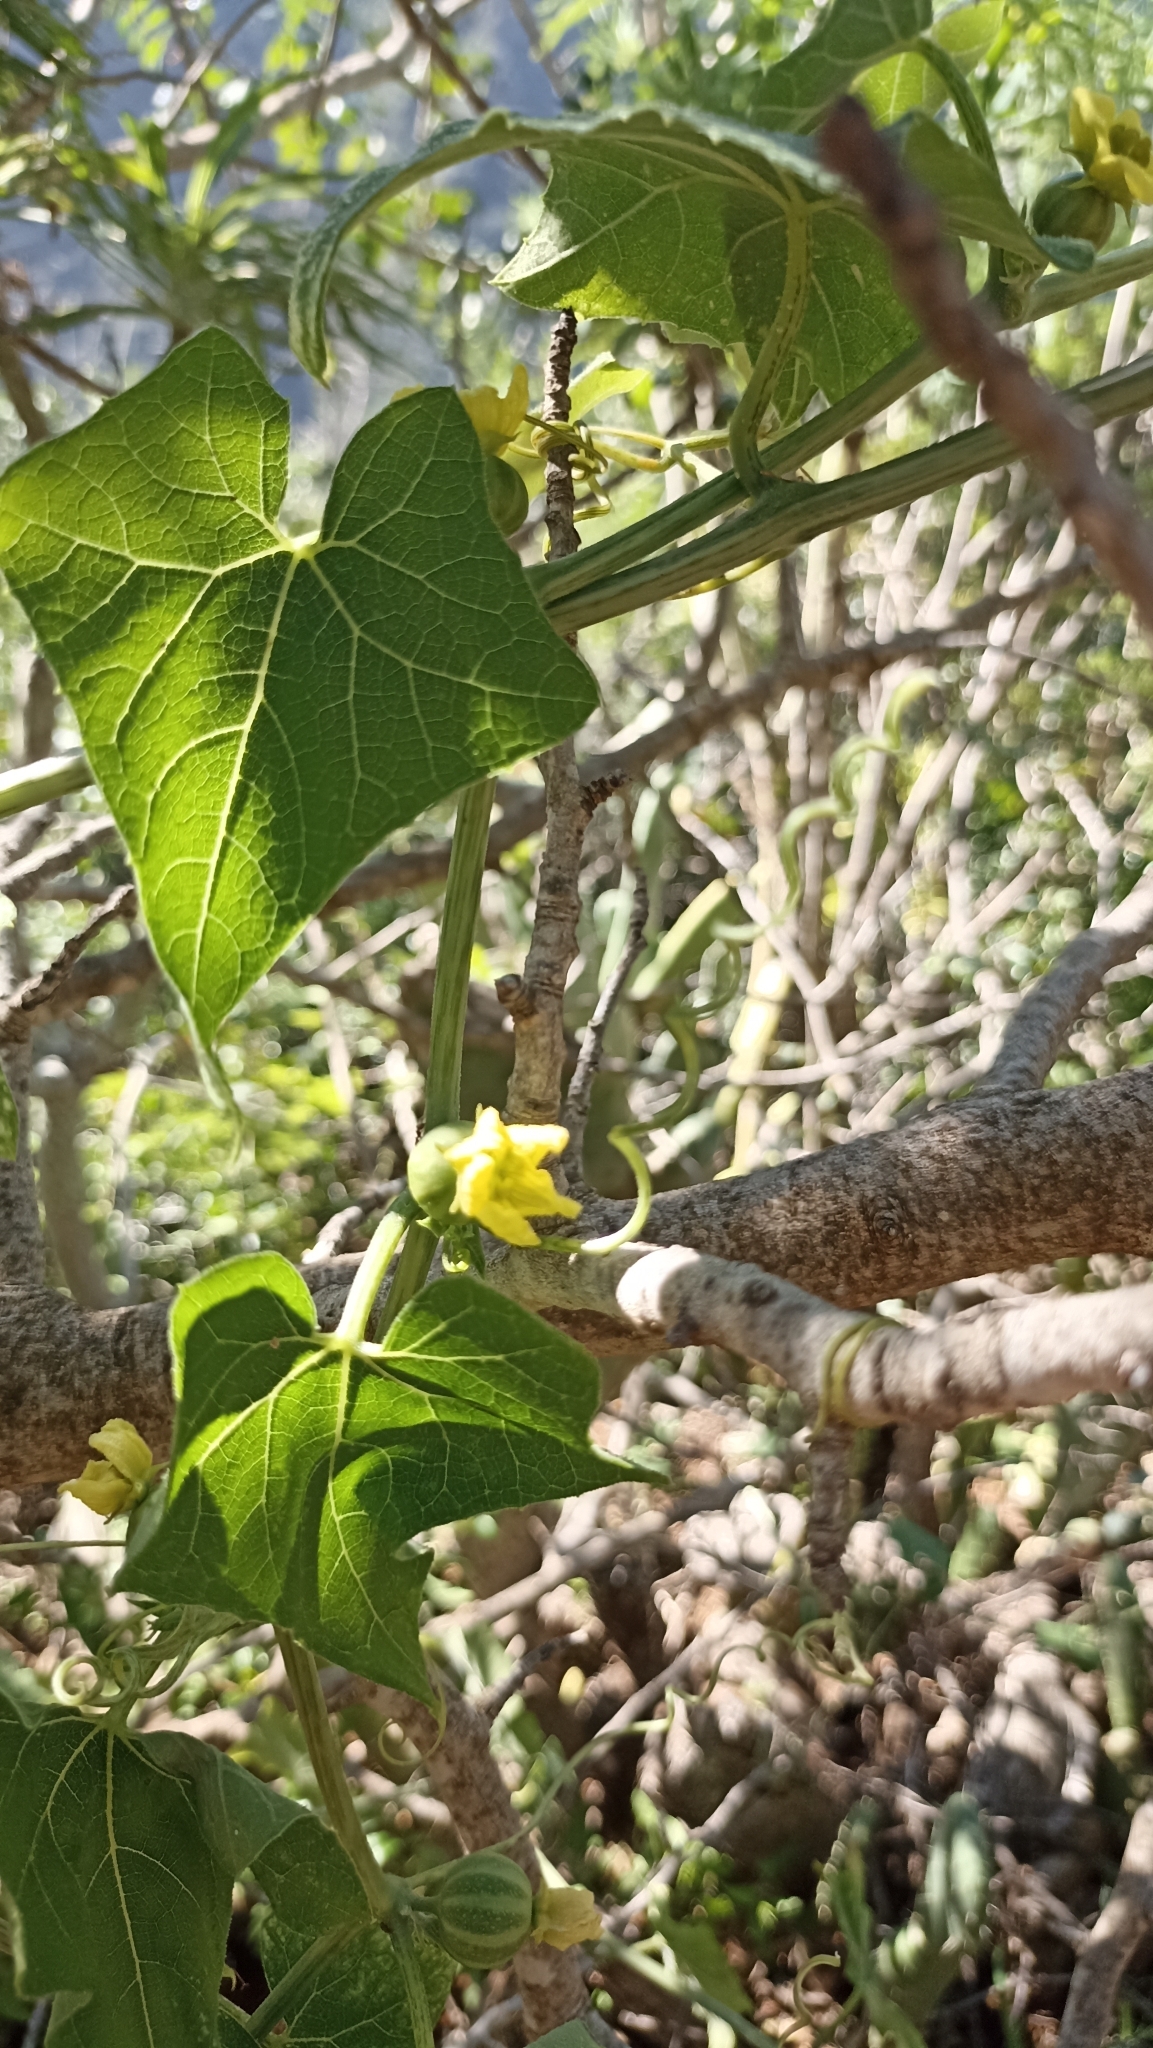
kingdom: Plantae
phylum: Tracheophyta
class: Magnoliopsida
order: Cucurbitales
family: Cucurbitaceae
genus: Bryonia
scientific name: Bryonia verrucosa
